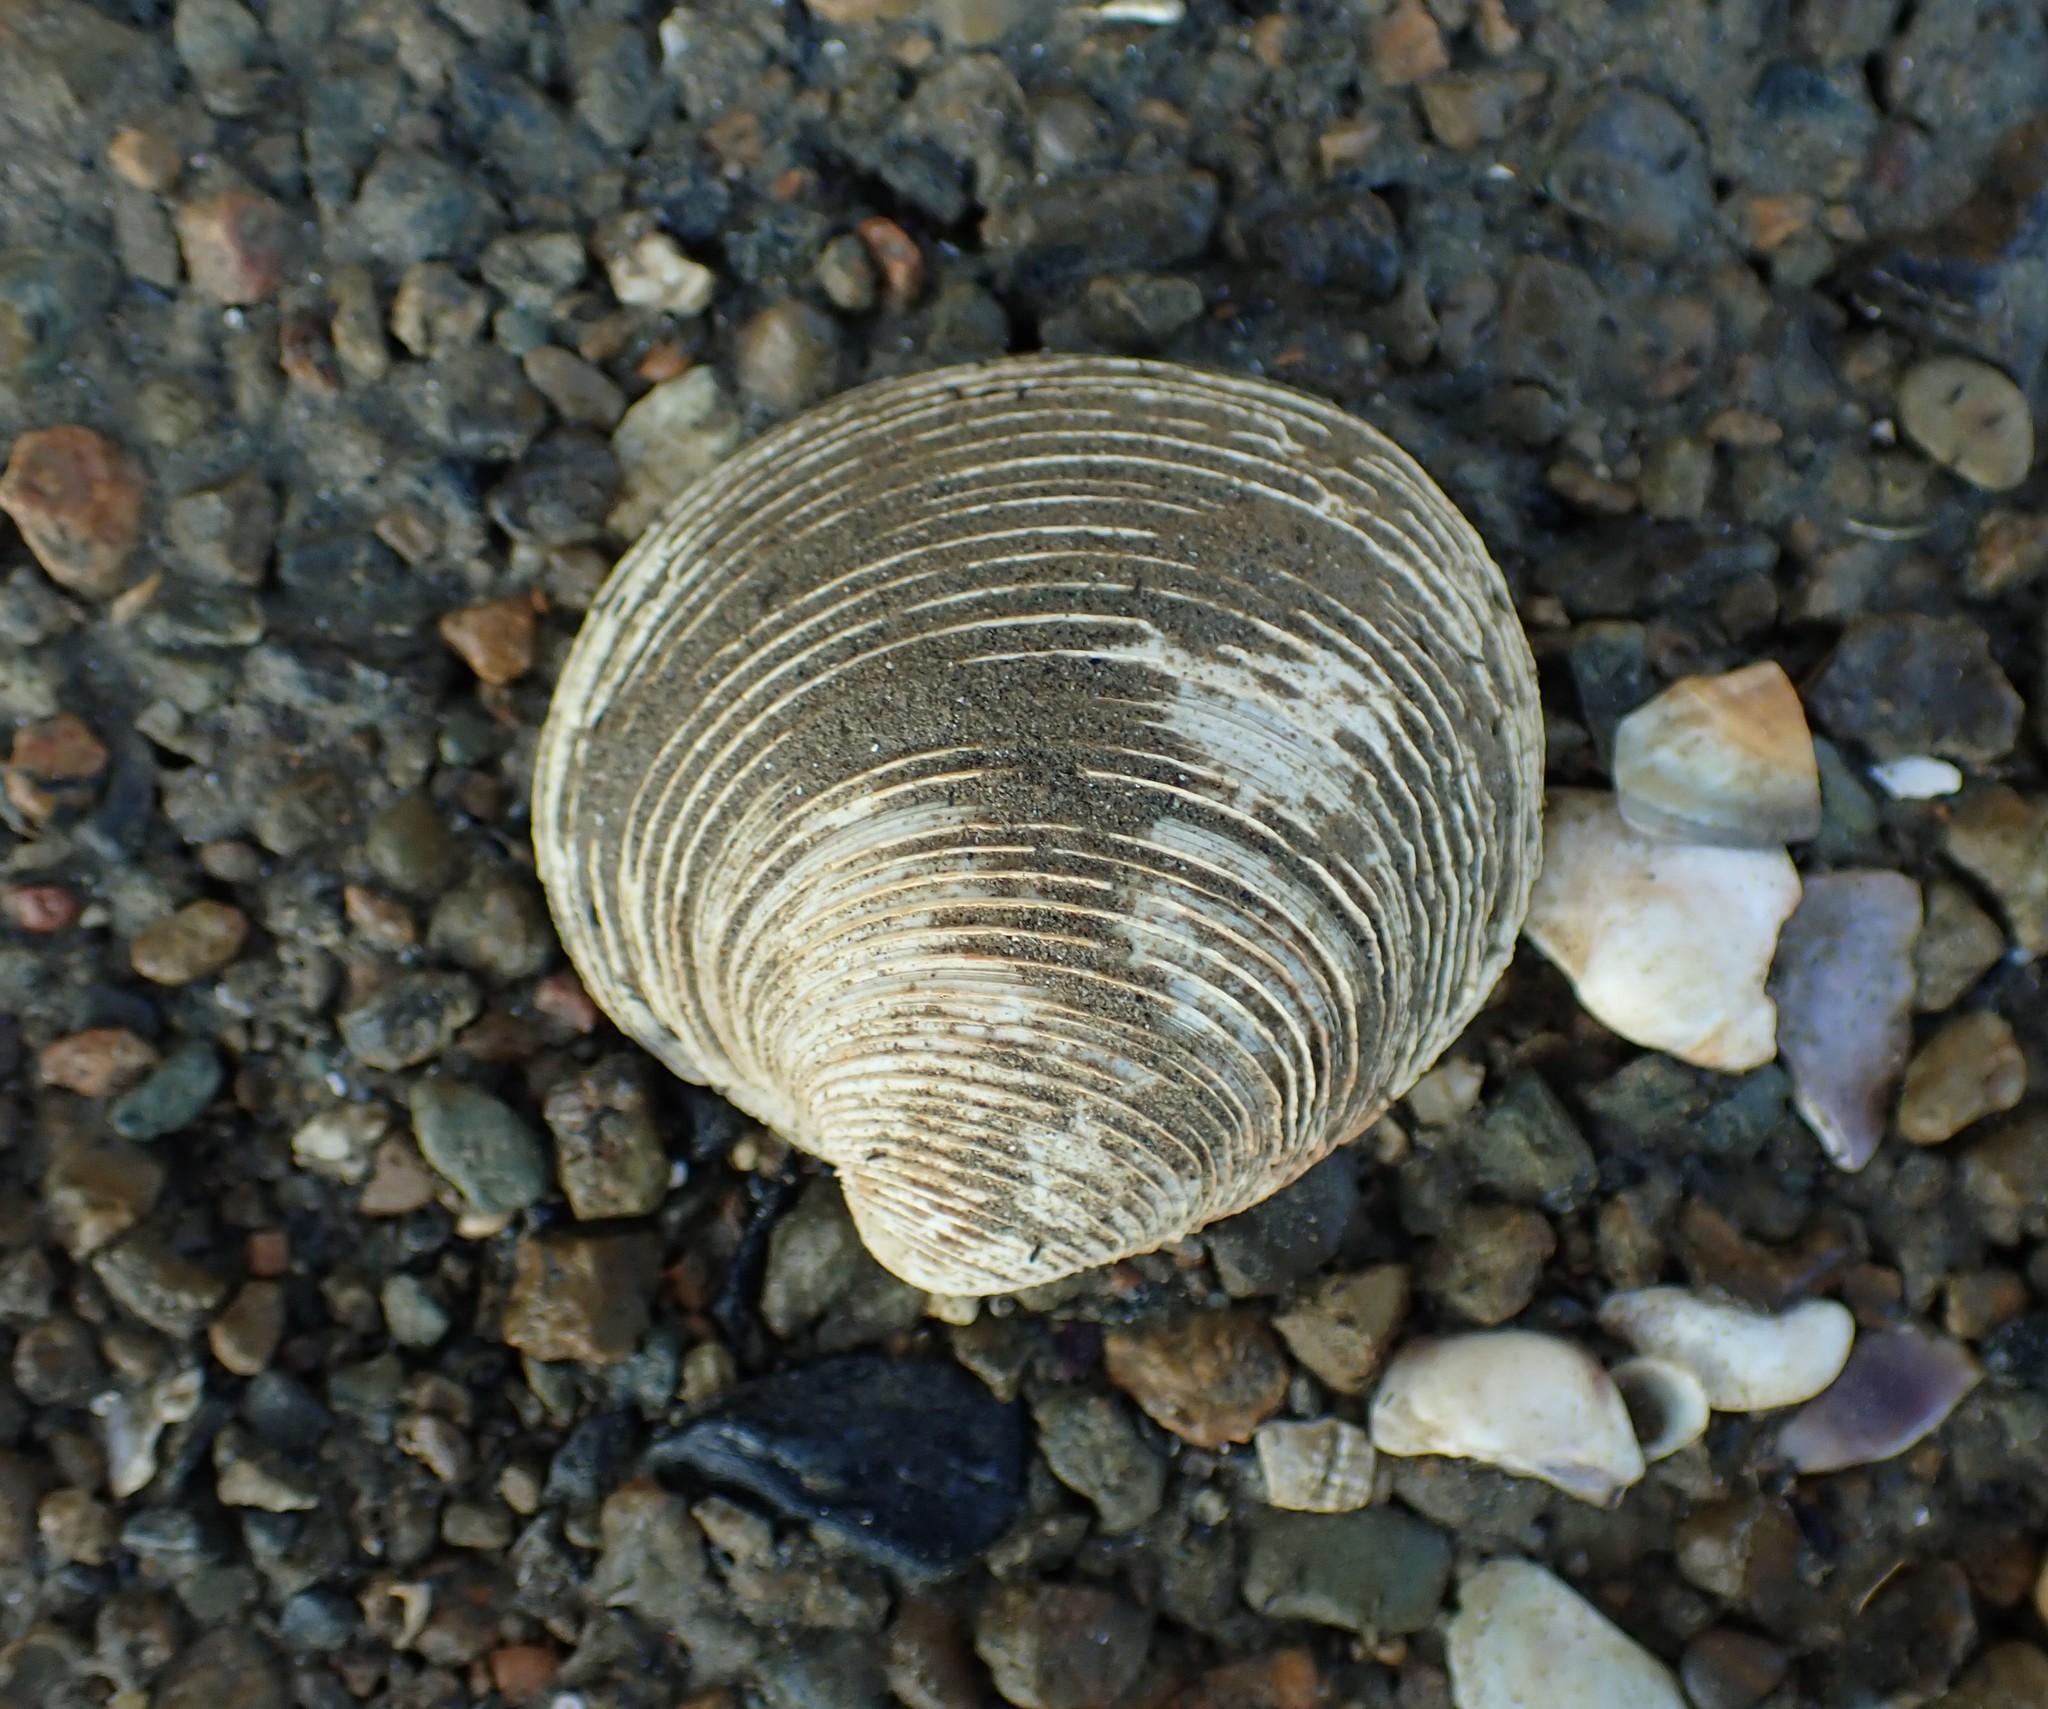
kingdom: Animalia
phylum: Mollusca
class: Bivalvia
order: Venerida
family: Veneridae
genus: Dosina
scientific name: Dosina mactracea
